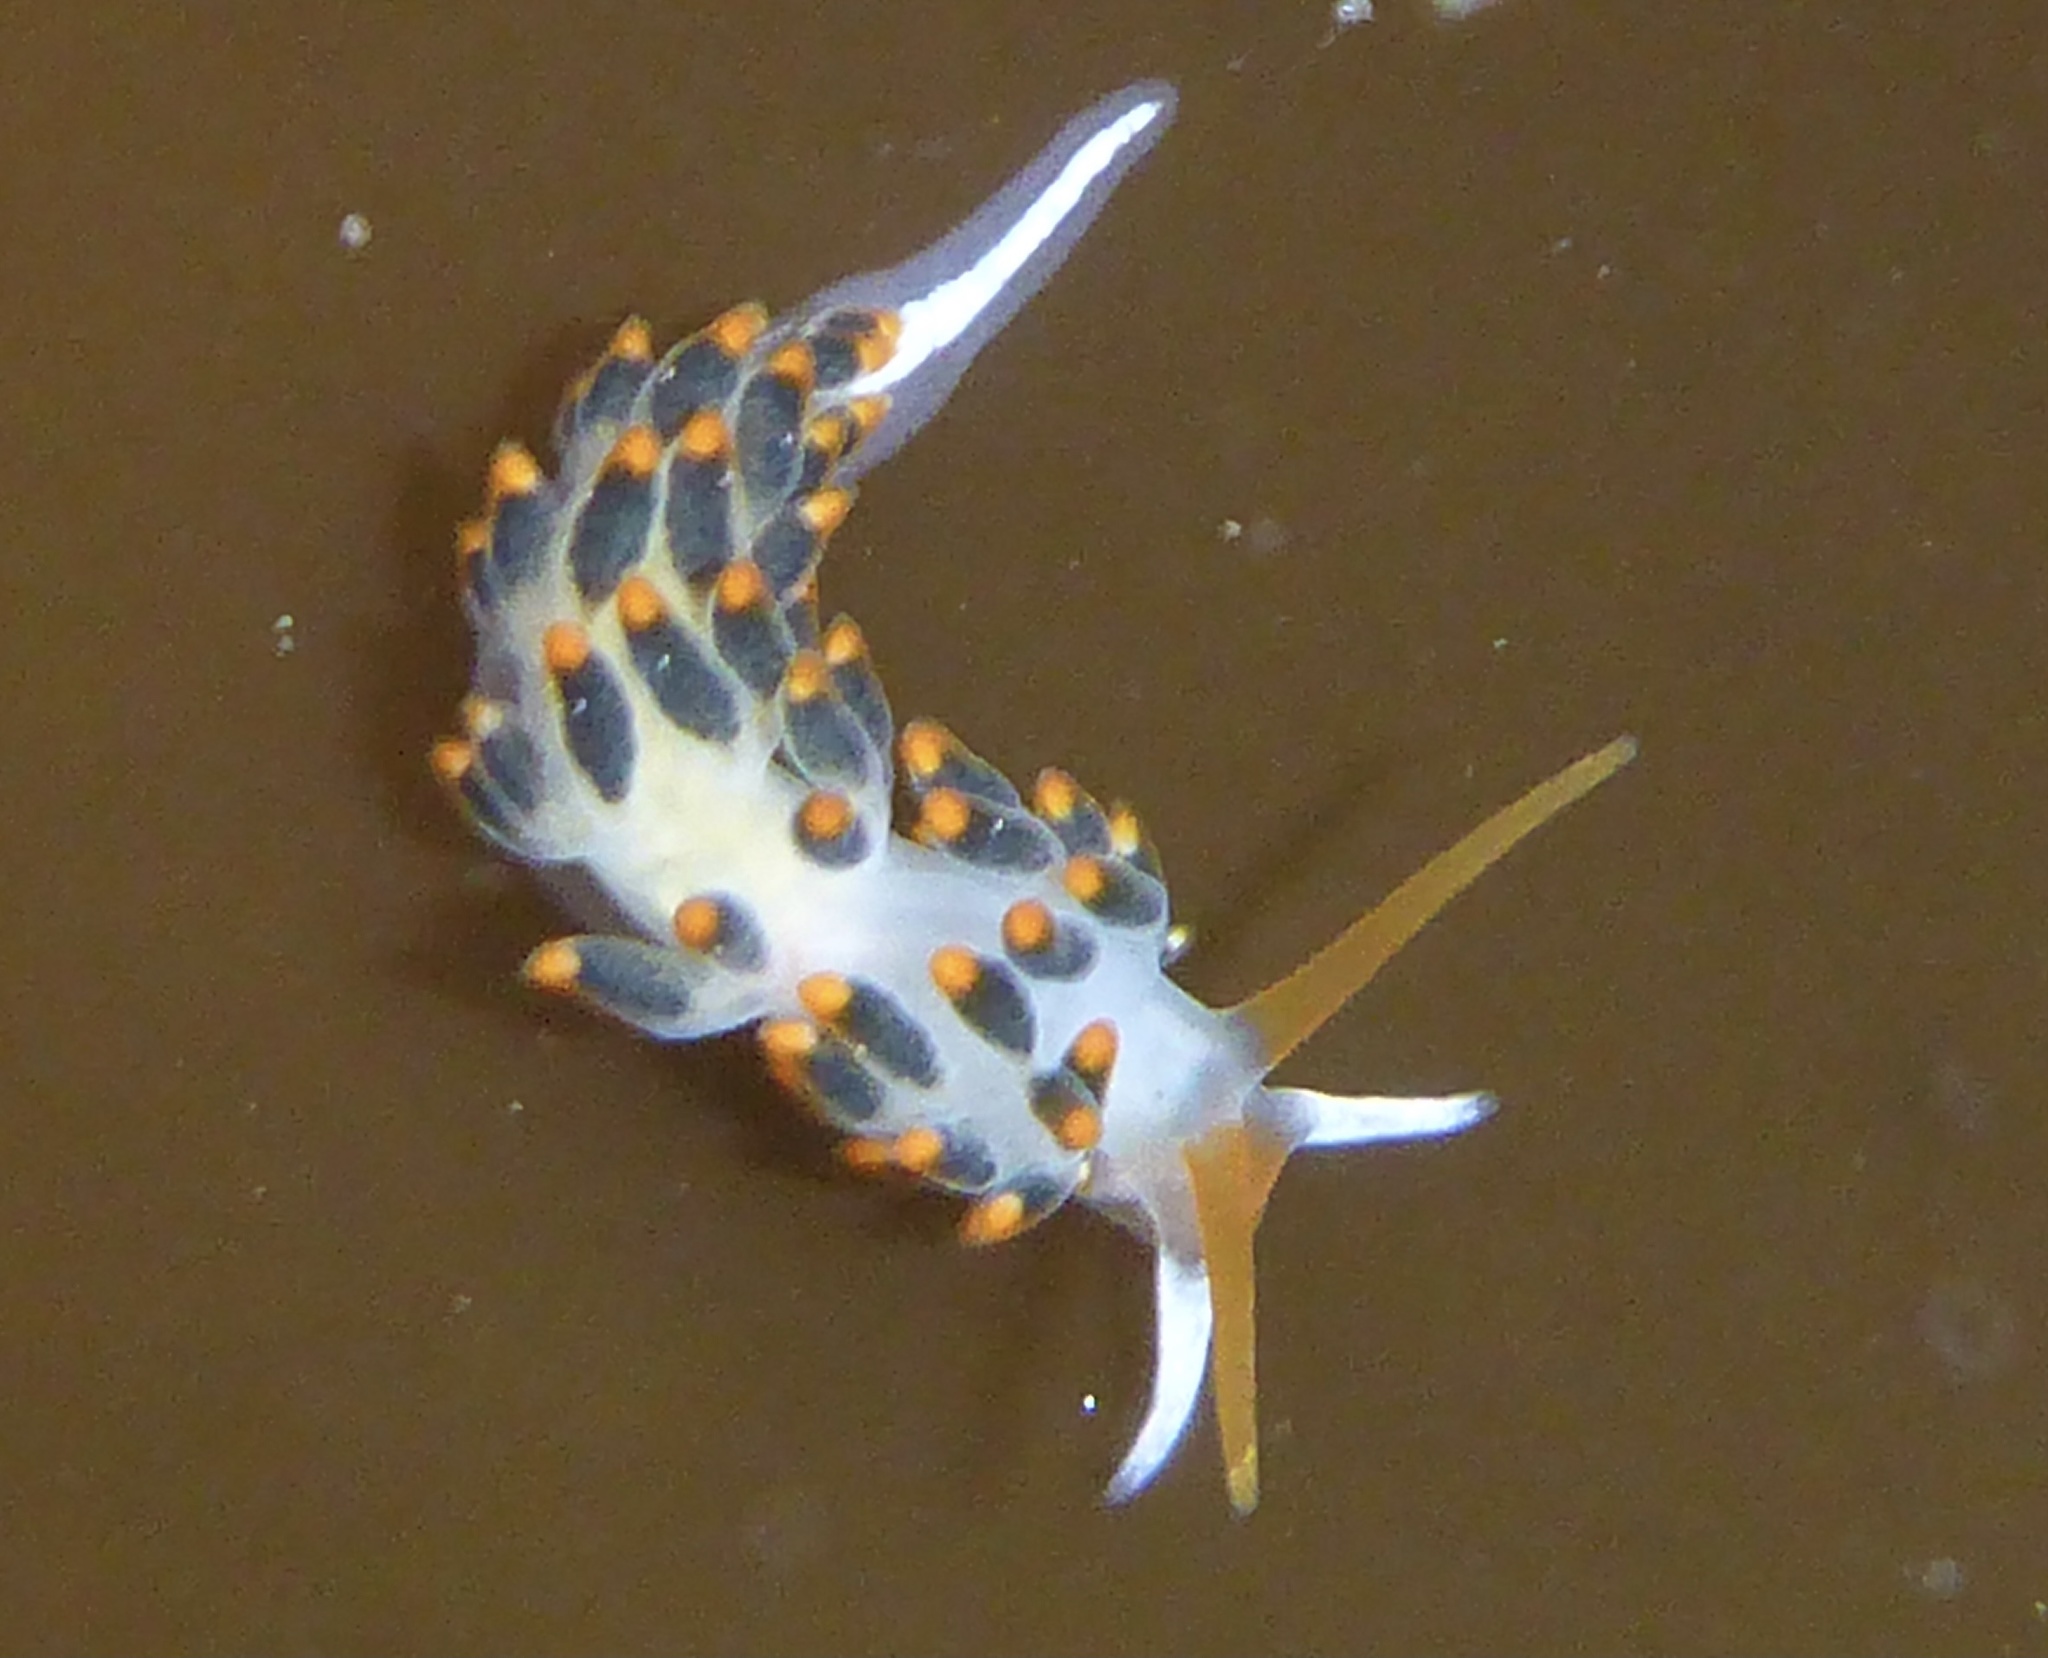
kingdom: Animalia
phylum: Mollusca
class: Gastropoda
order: Nudibranchia
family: Trinchesiidae
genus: Diaphoreolis
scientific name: Diaphoreolis lagunae
